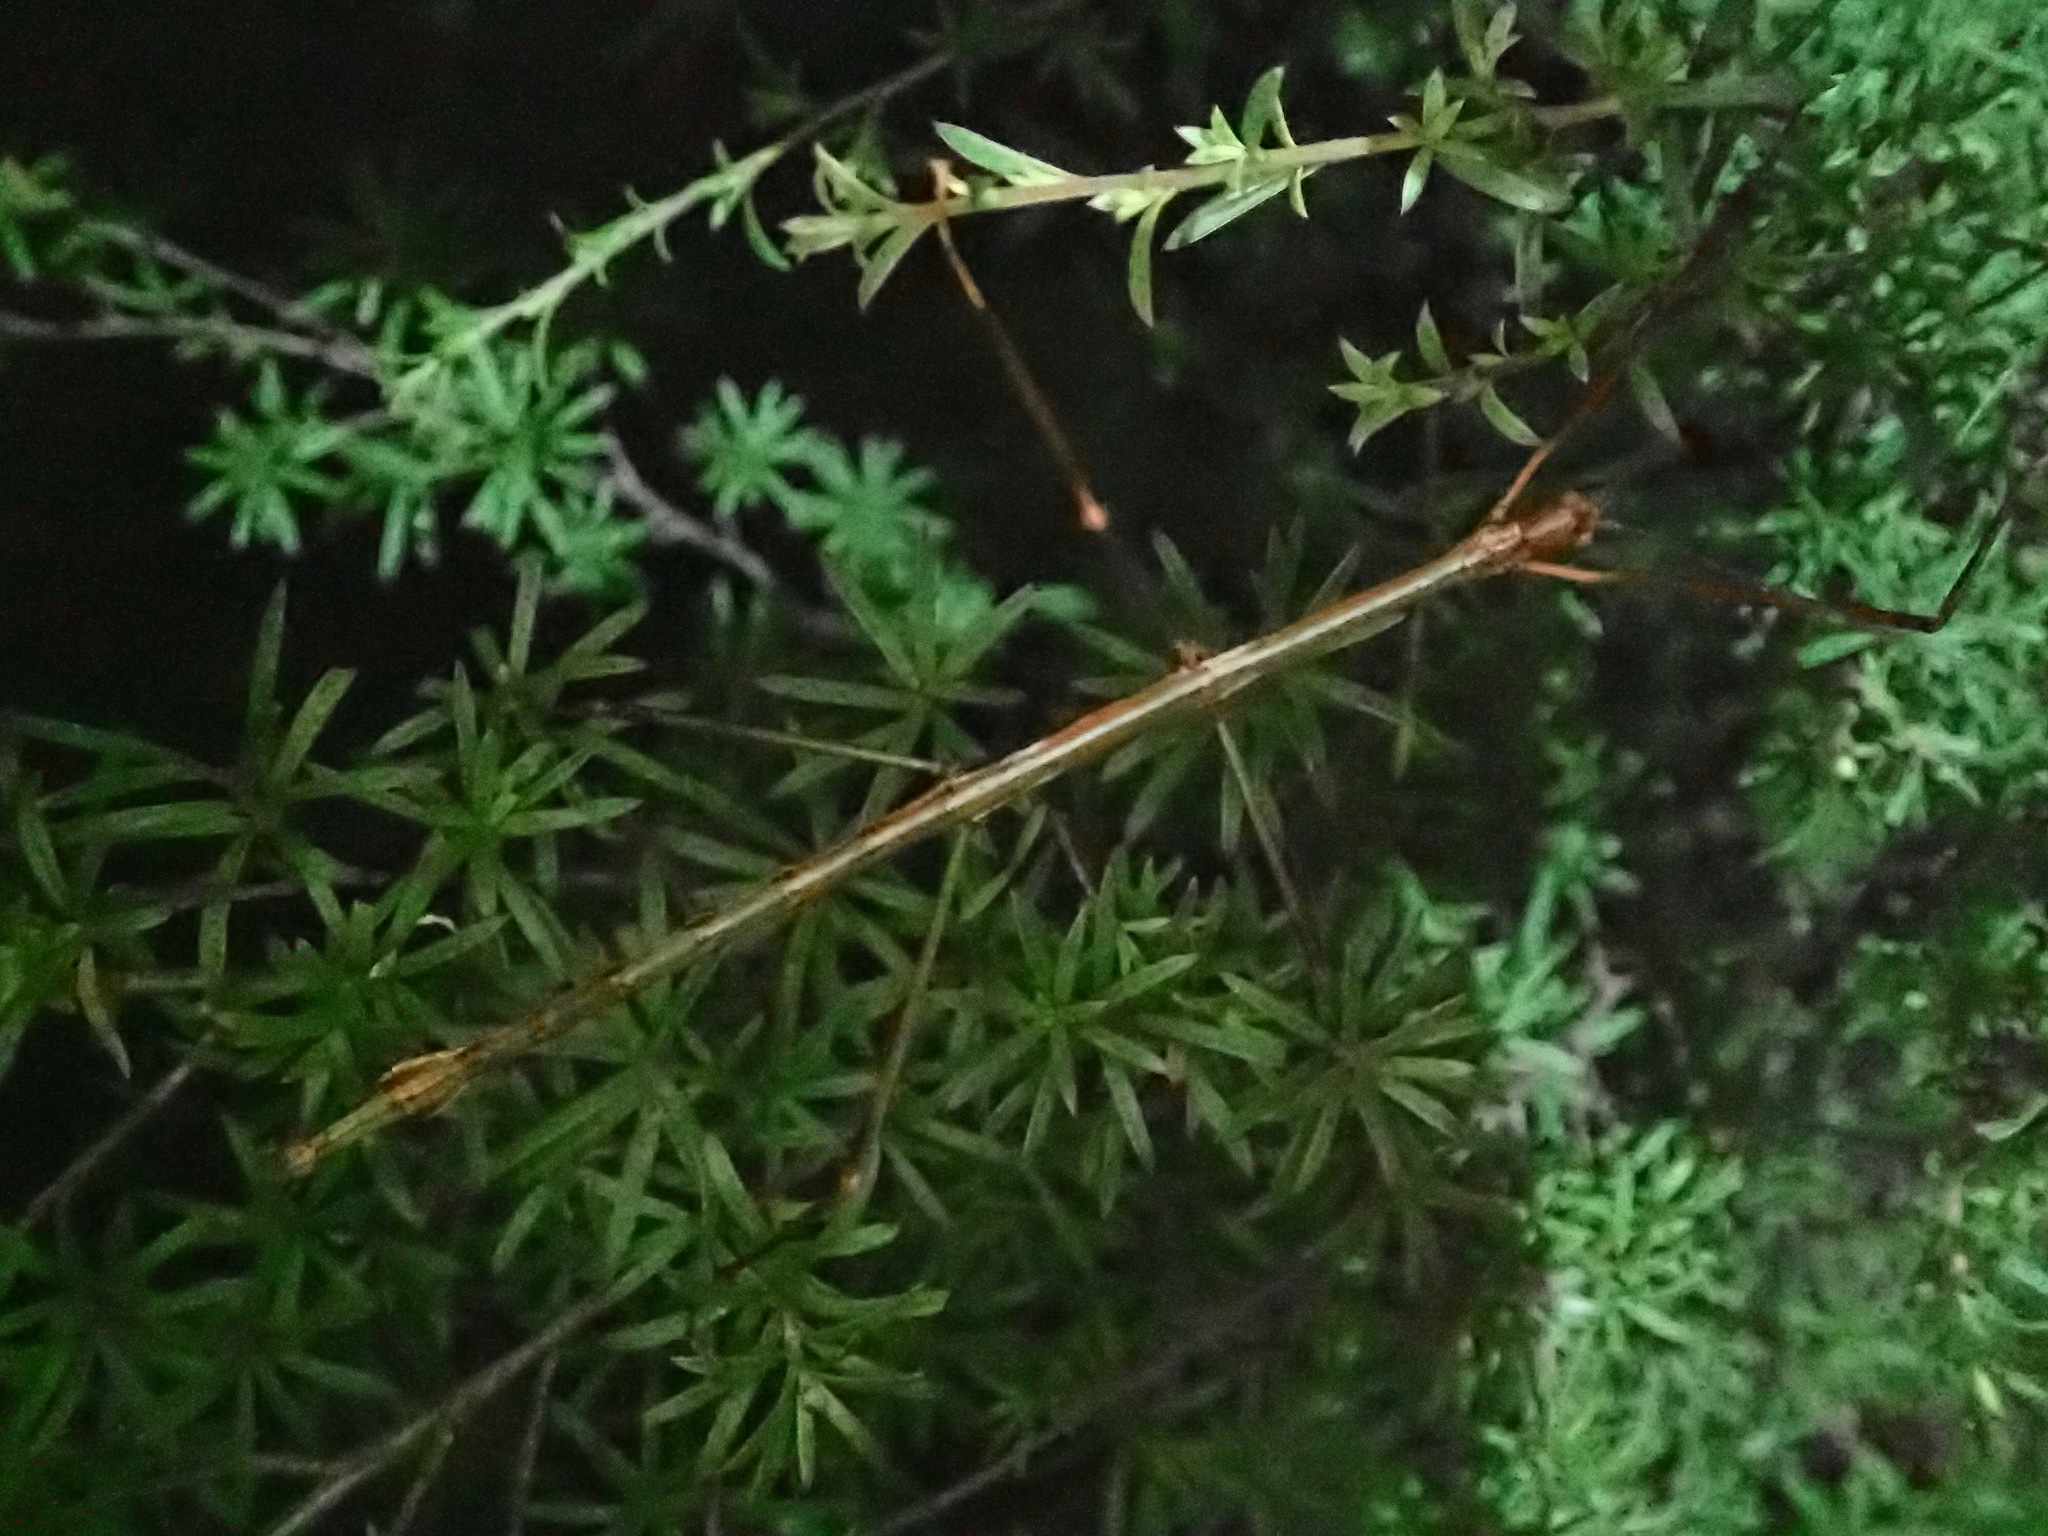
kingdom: Animalia
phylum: Arthropoda
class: Insecta
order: Phasmida
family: Phasmatidae
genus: Clitarchus
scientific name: Clitarchus hookeri
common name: Smooth stick insect
